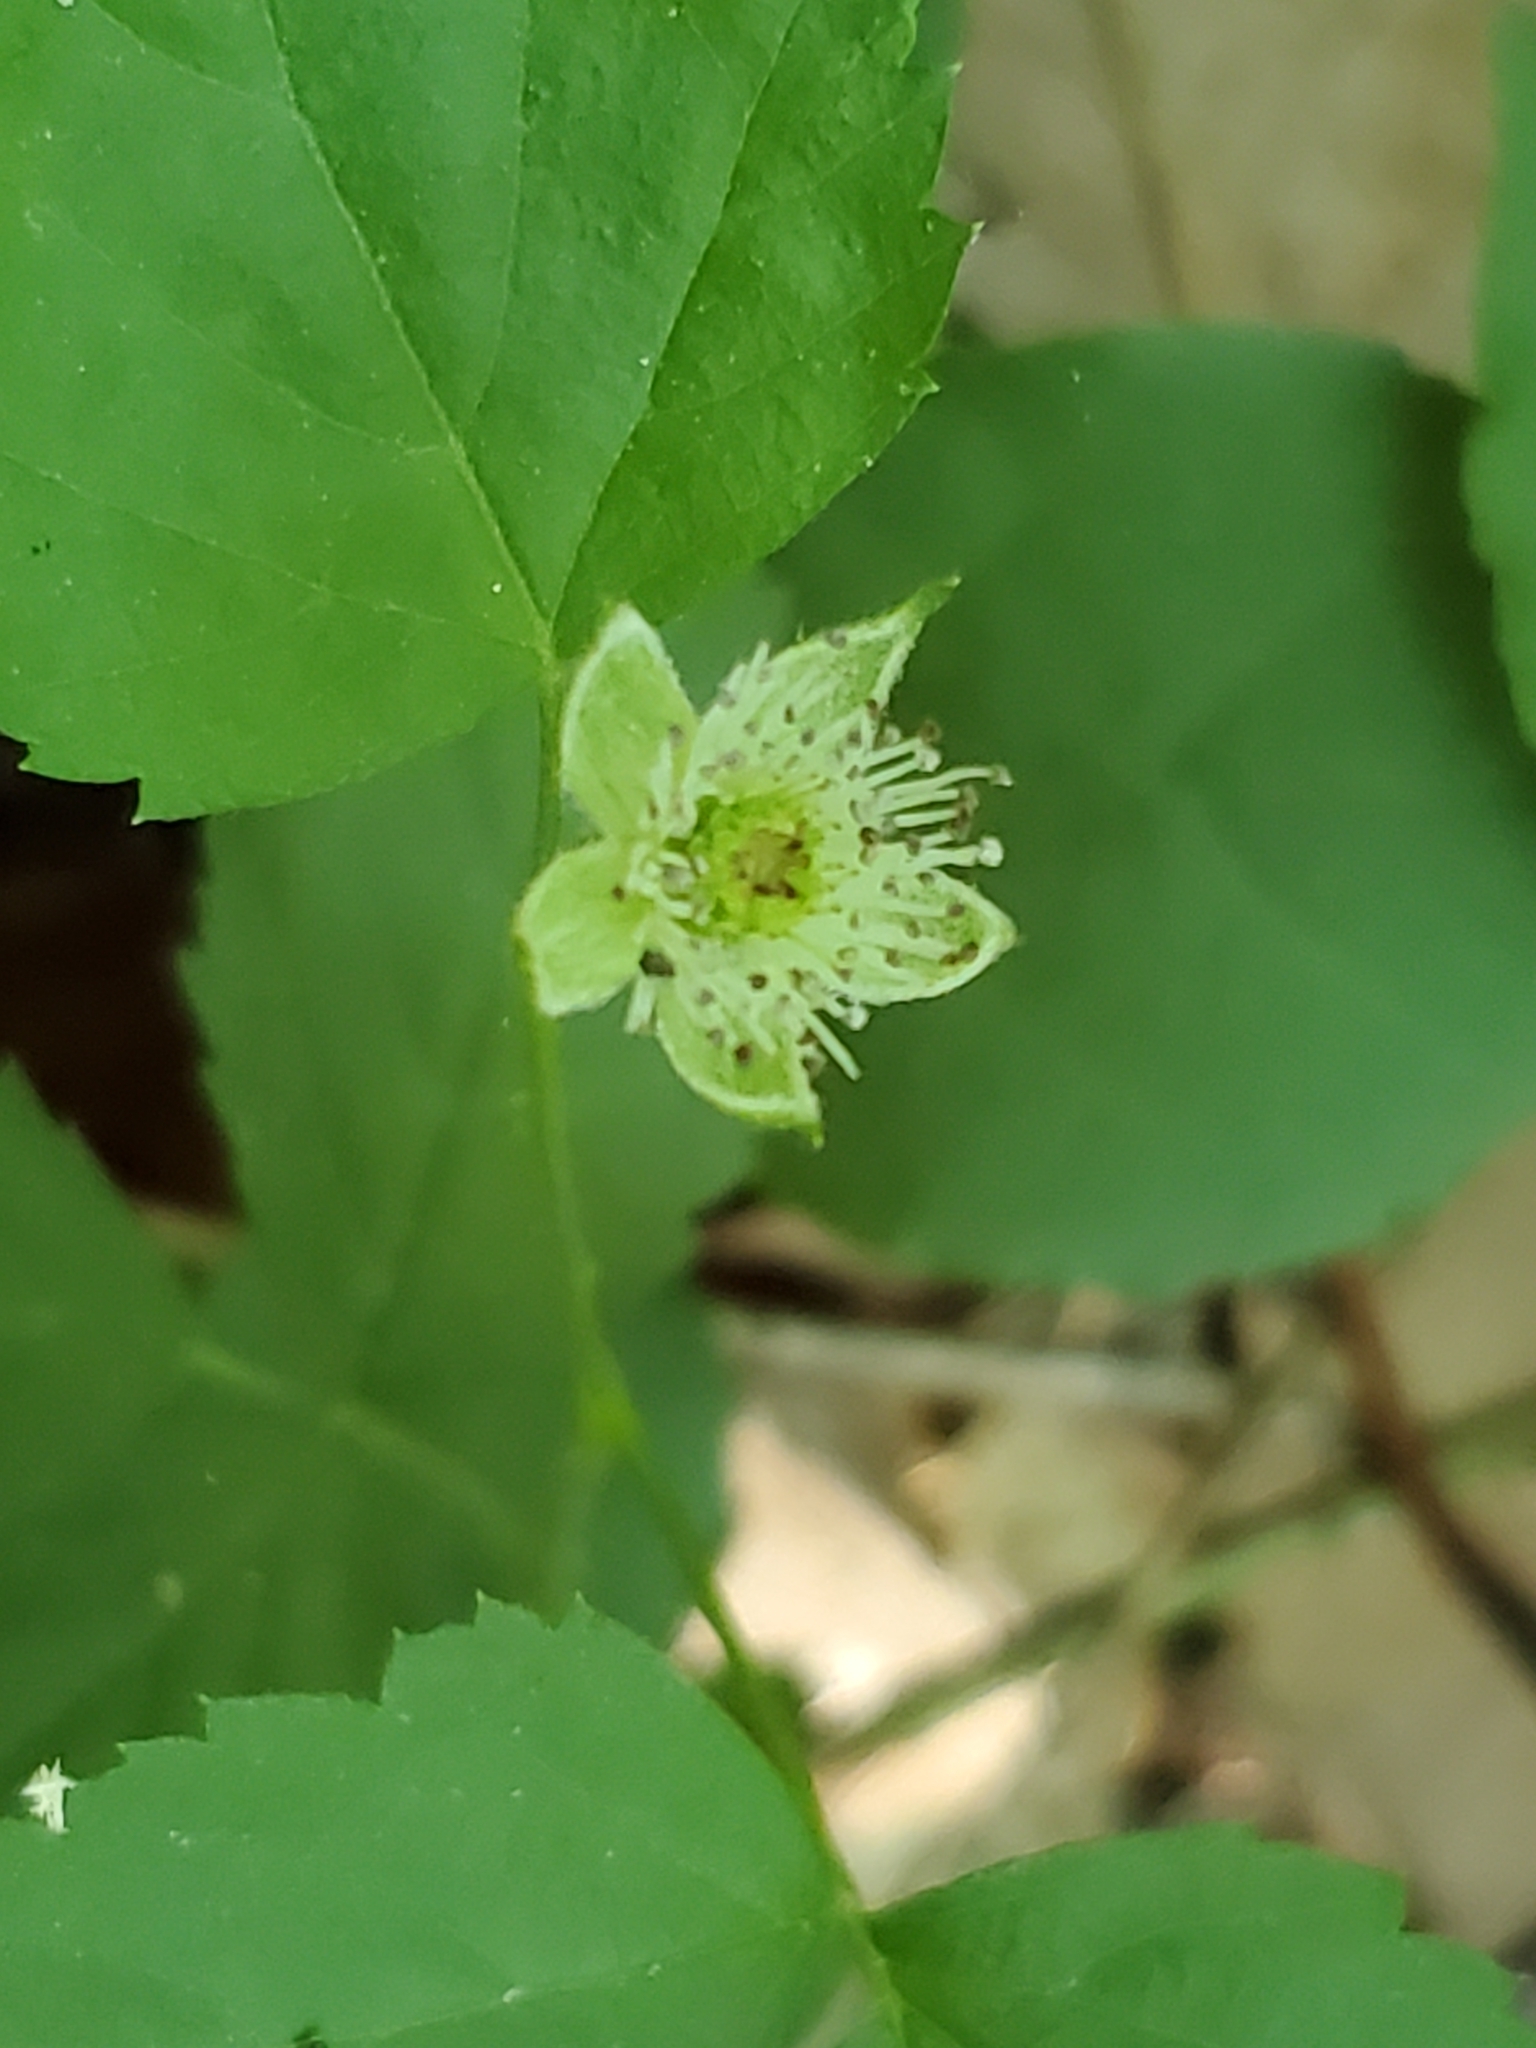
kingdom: Plantae
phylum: Tracheophyta
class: Magnoliopsida
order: Rosales
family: Rosaceae
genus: Rubus
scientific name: Rubus flagellaris
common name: American dewberry
